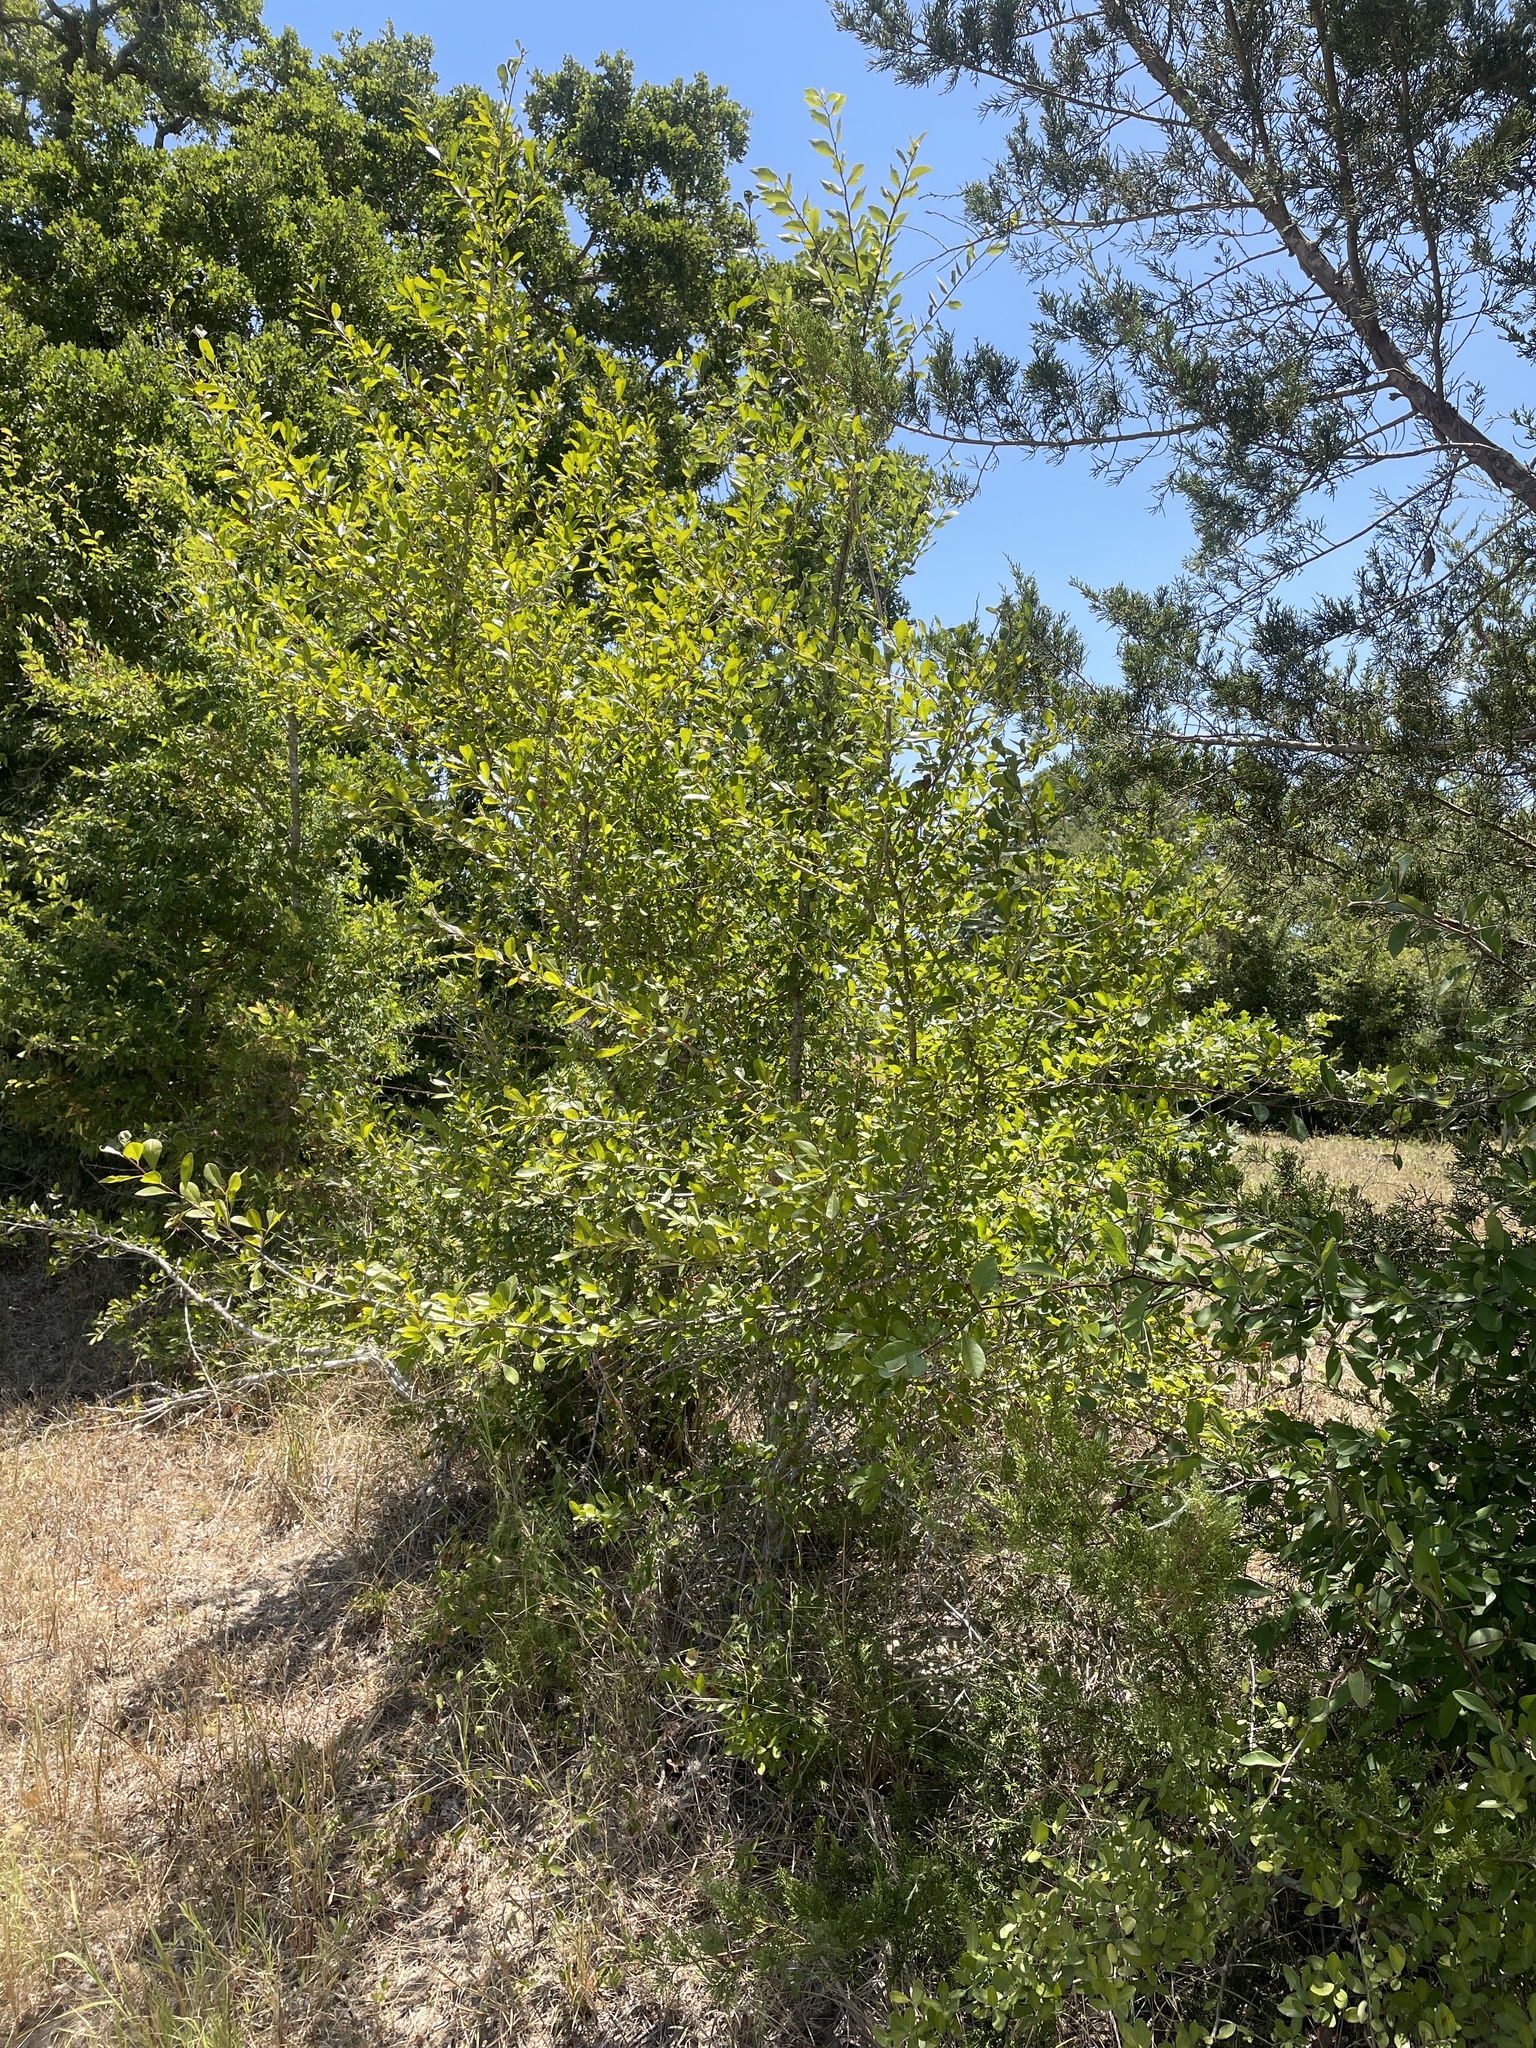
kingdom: Plantae
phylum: Tracheophyta
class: Magnoliopsida
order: Aquifoliales
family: Aquifoliaceae
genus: Ilex
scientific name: Ilex decidua
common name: Possum-haw
